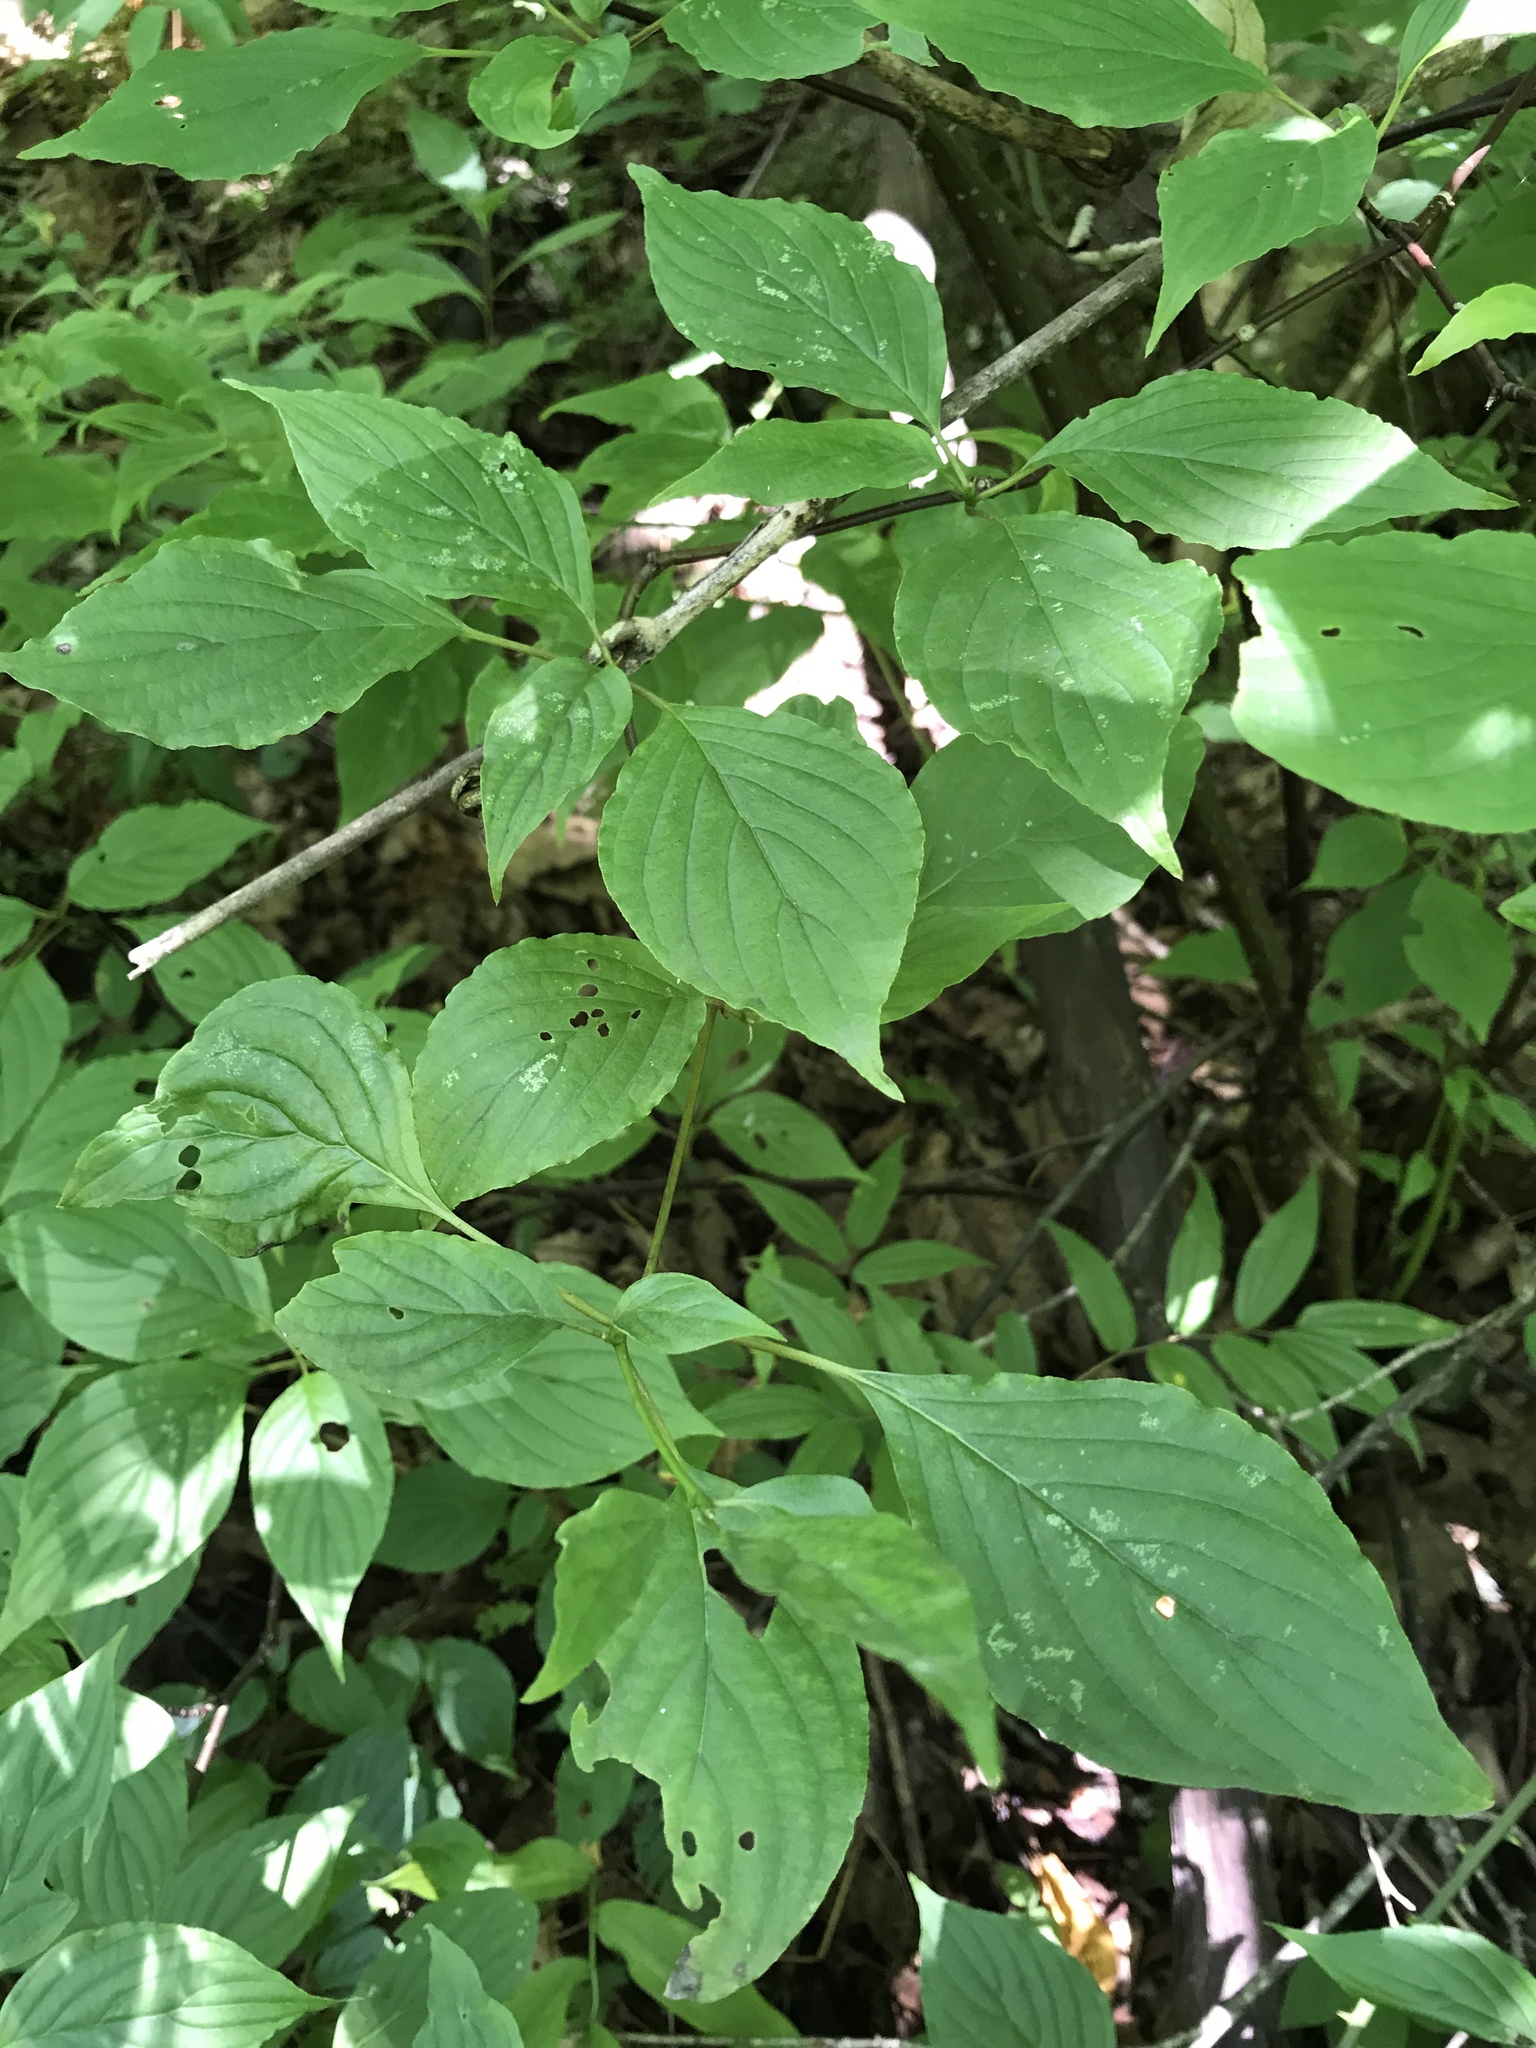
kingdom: Plantae
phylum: Tracheophyta
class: Magnoliopsida
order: Cornales
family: Cornaceae
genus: Cornus
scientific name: Cornus alternifolia
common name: Pagoda dogwood
